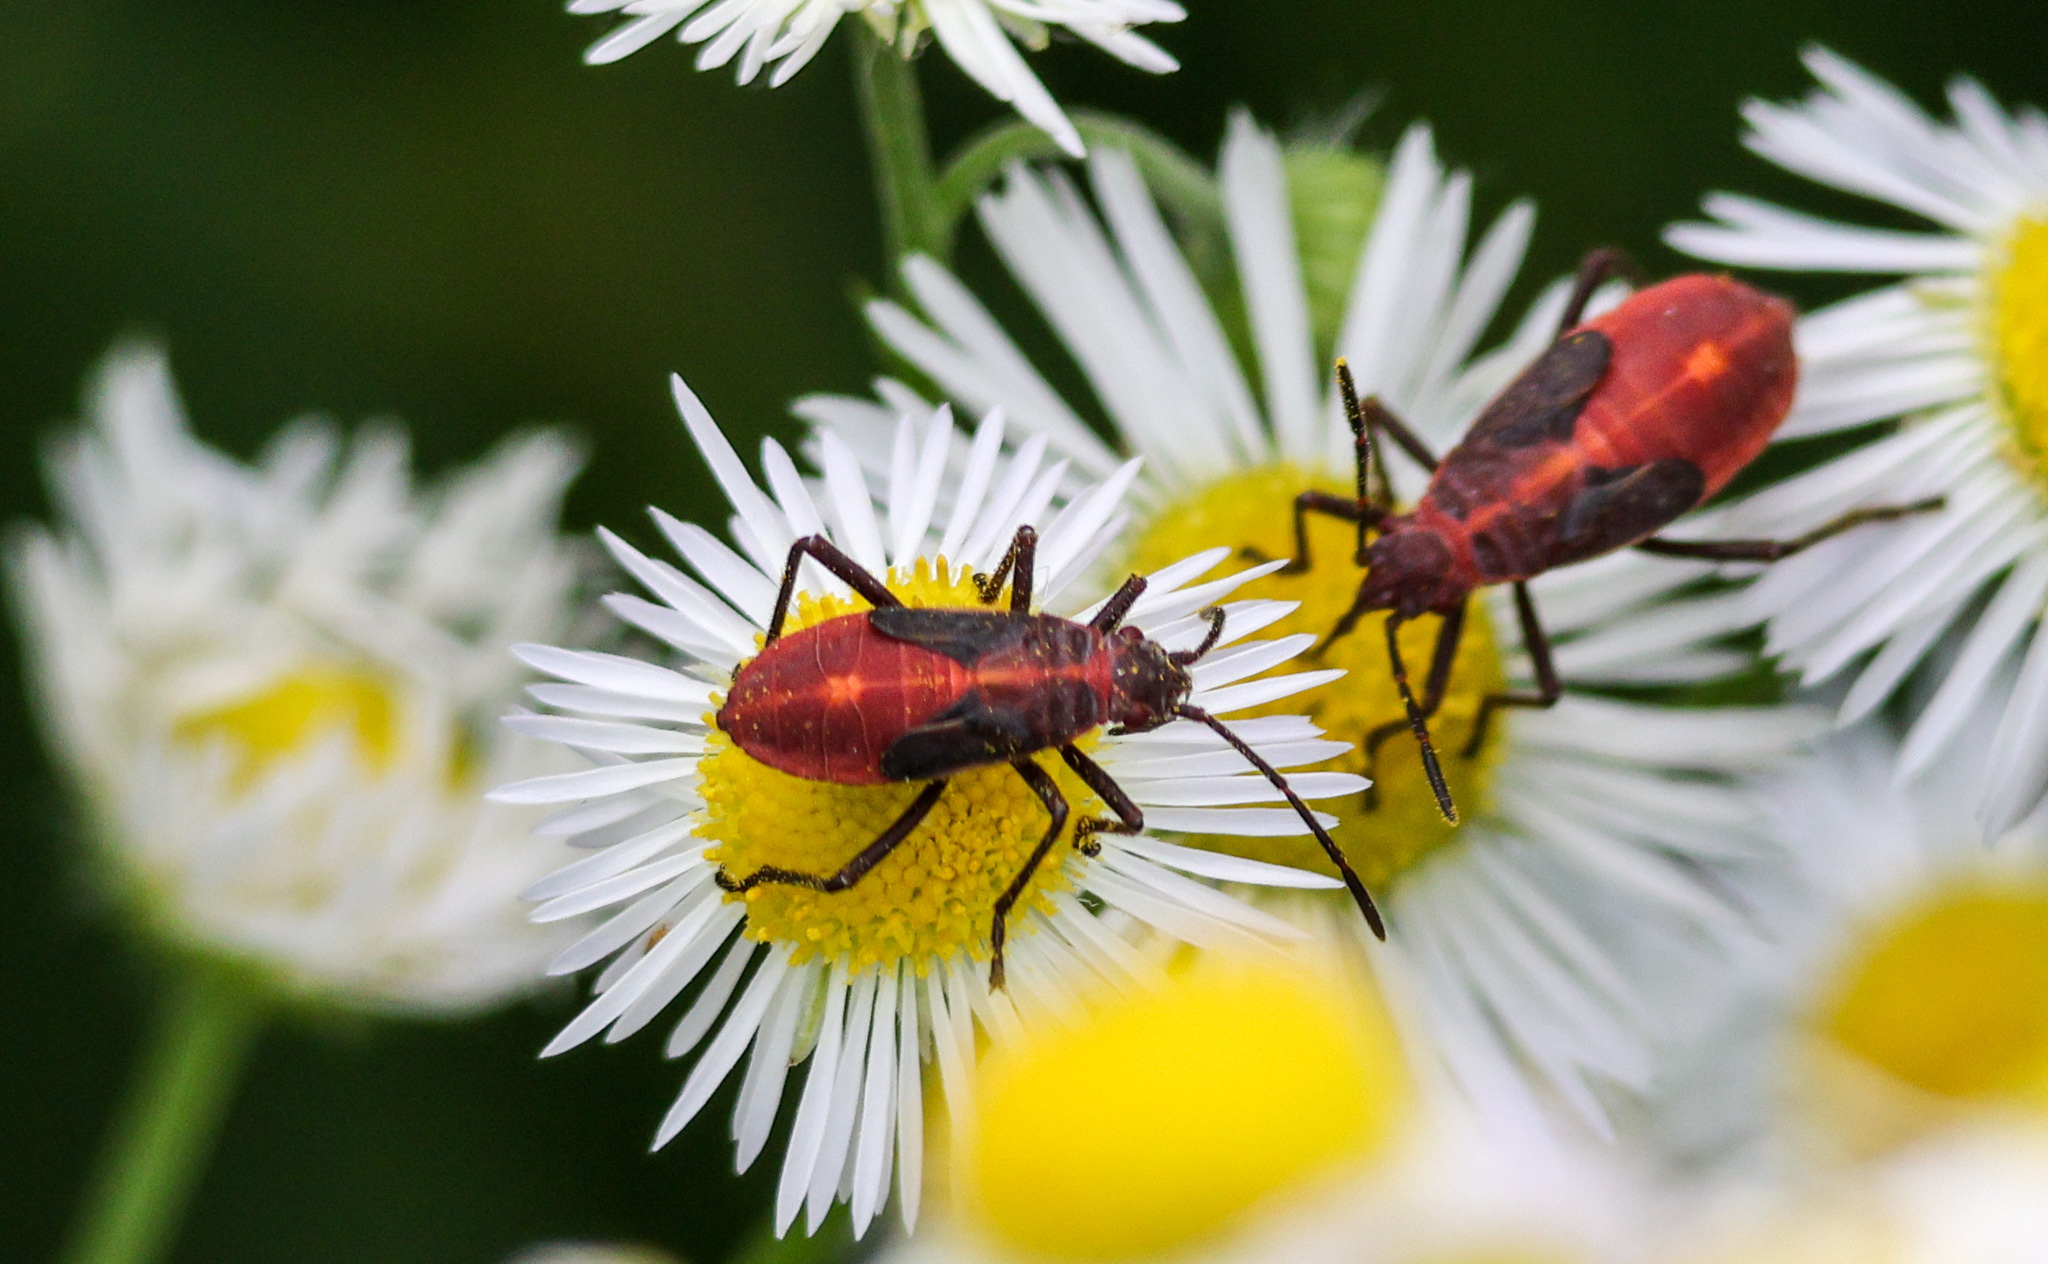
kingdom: Animalia
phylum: Arthropoda
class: Insecta
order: Hemiptera
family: Rhopalidae
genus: Boisea
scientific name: Boisea trivittata
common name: Boxelder bug
